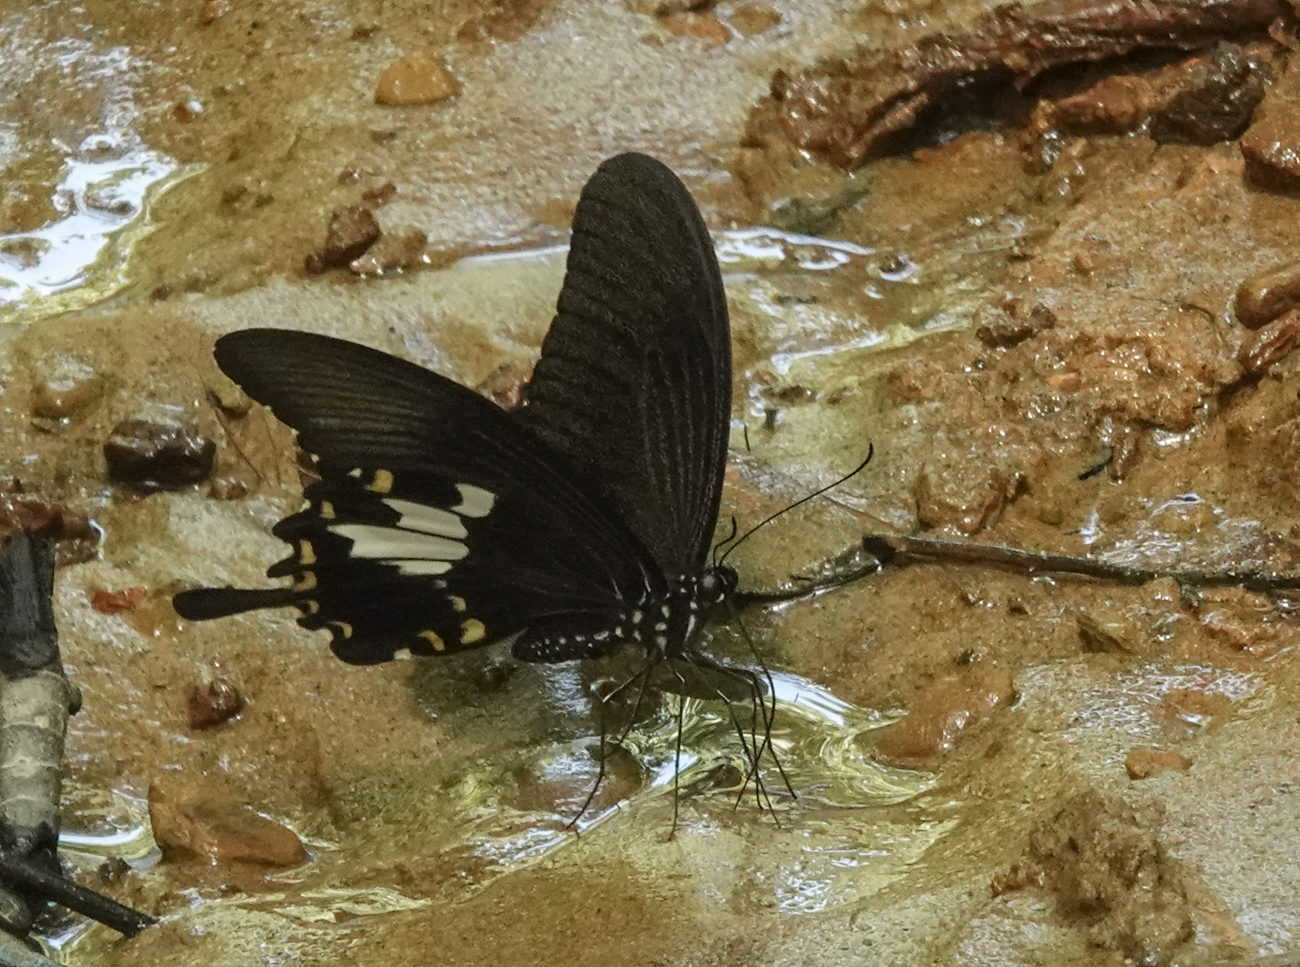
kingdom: Animalia
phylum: Arthropoda
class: Insecta
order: Lepidoptera
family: Papilionidae
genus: Papilio
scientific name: Papilio nephelus
